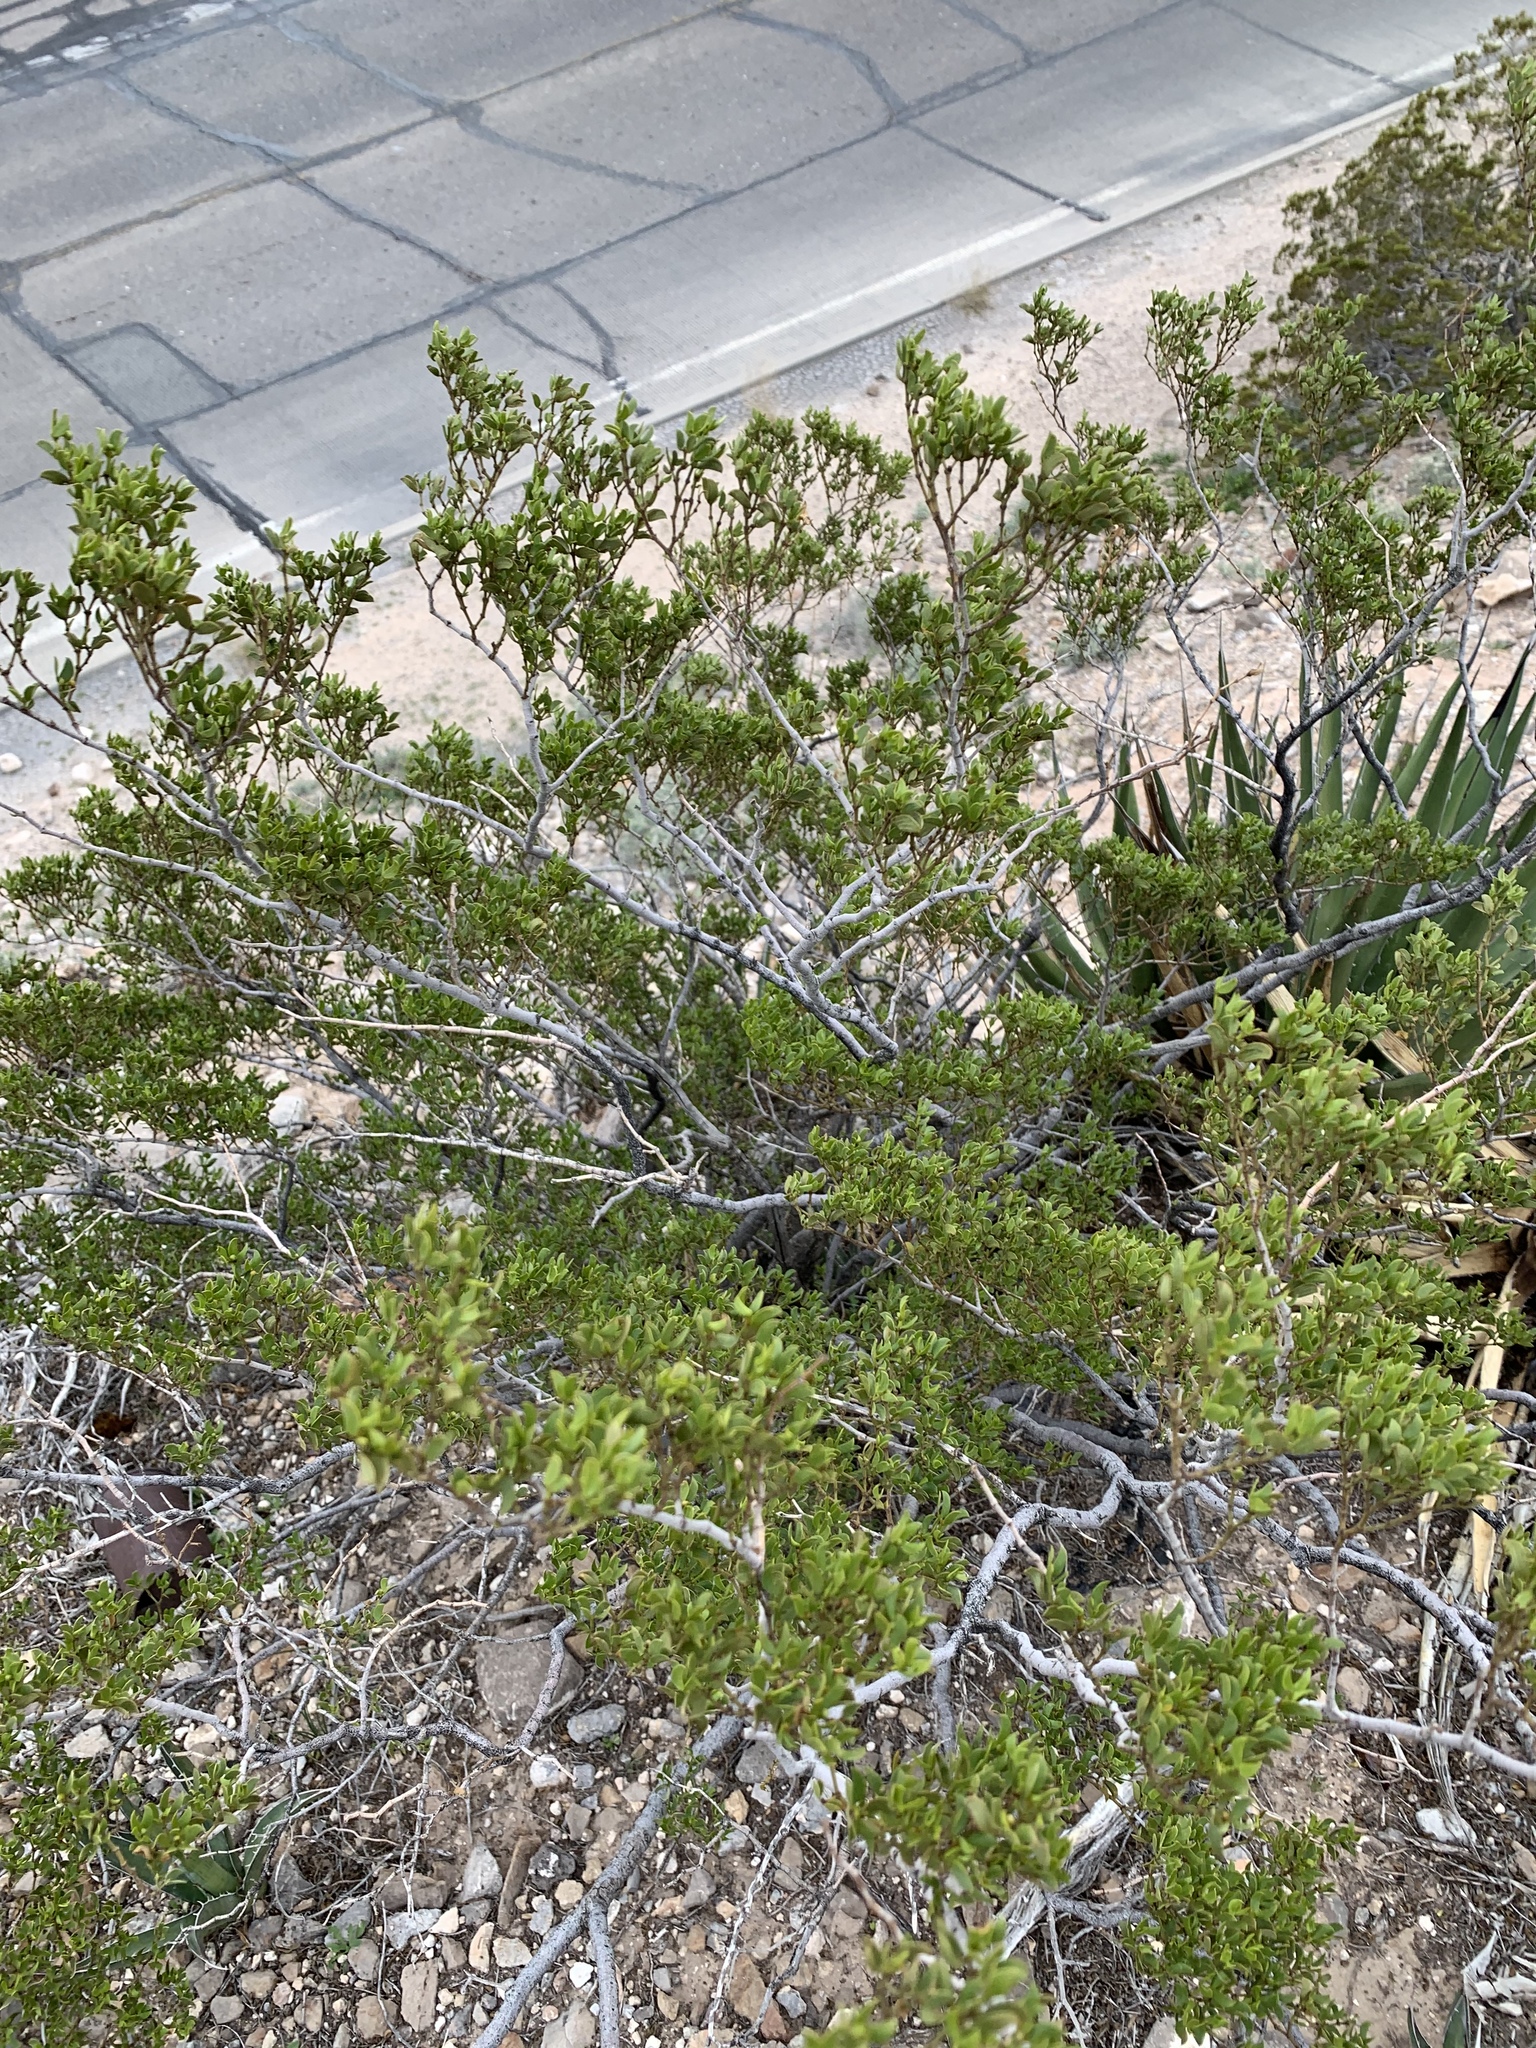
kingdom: Plantae
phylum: Tracheophyta
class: Magnoliopsida
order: Zygophyllales
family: Zygophyllaceae
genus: Larrea
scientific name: Larrea tridentata
